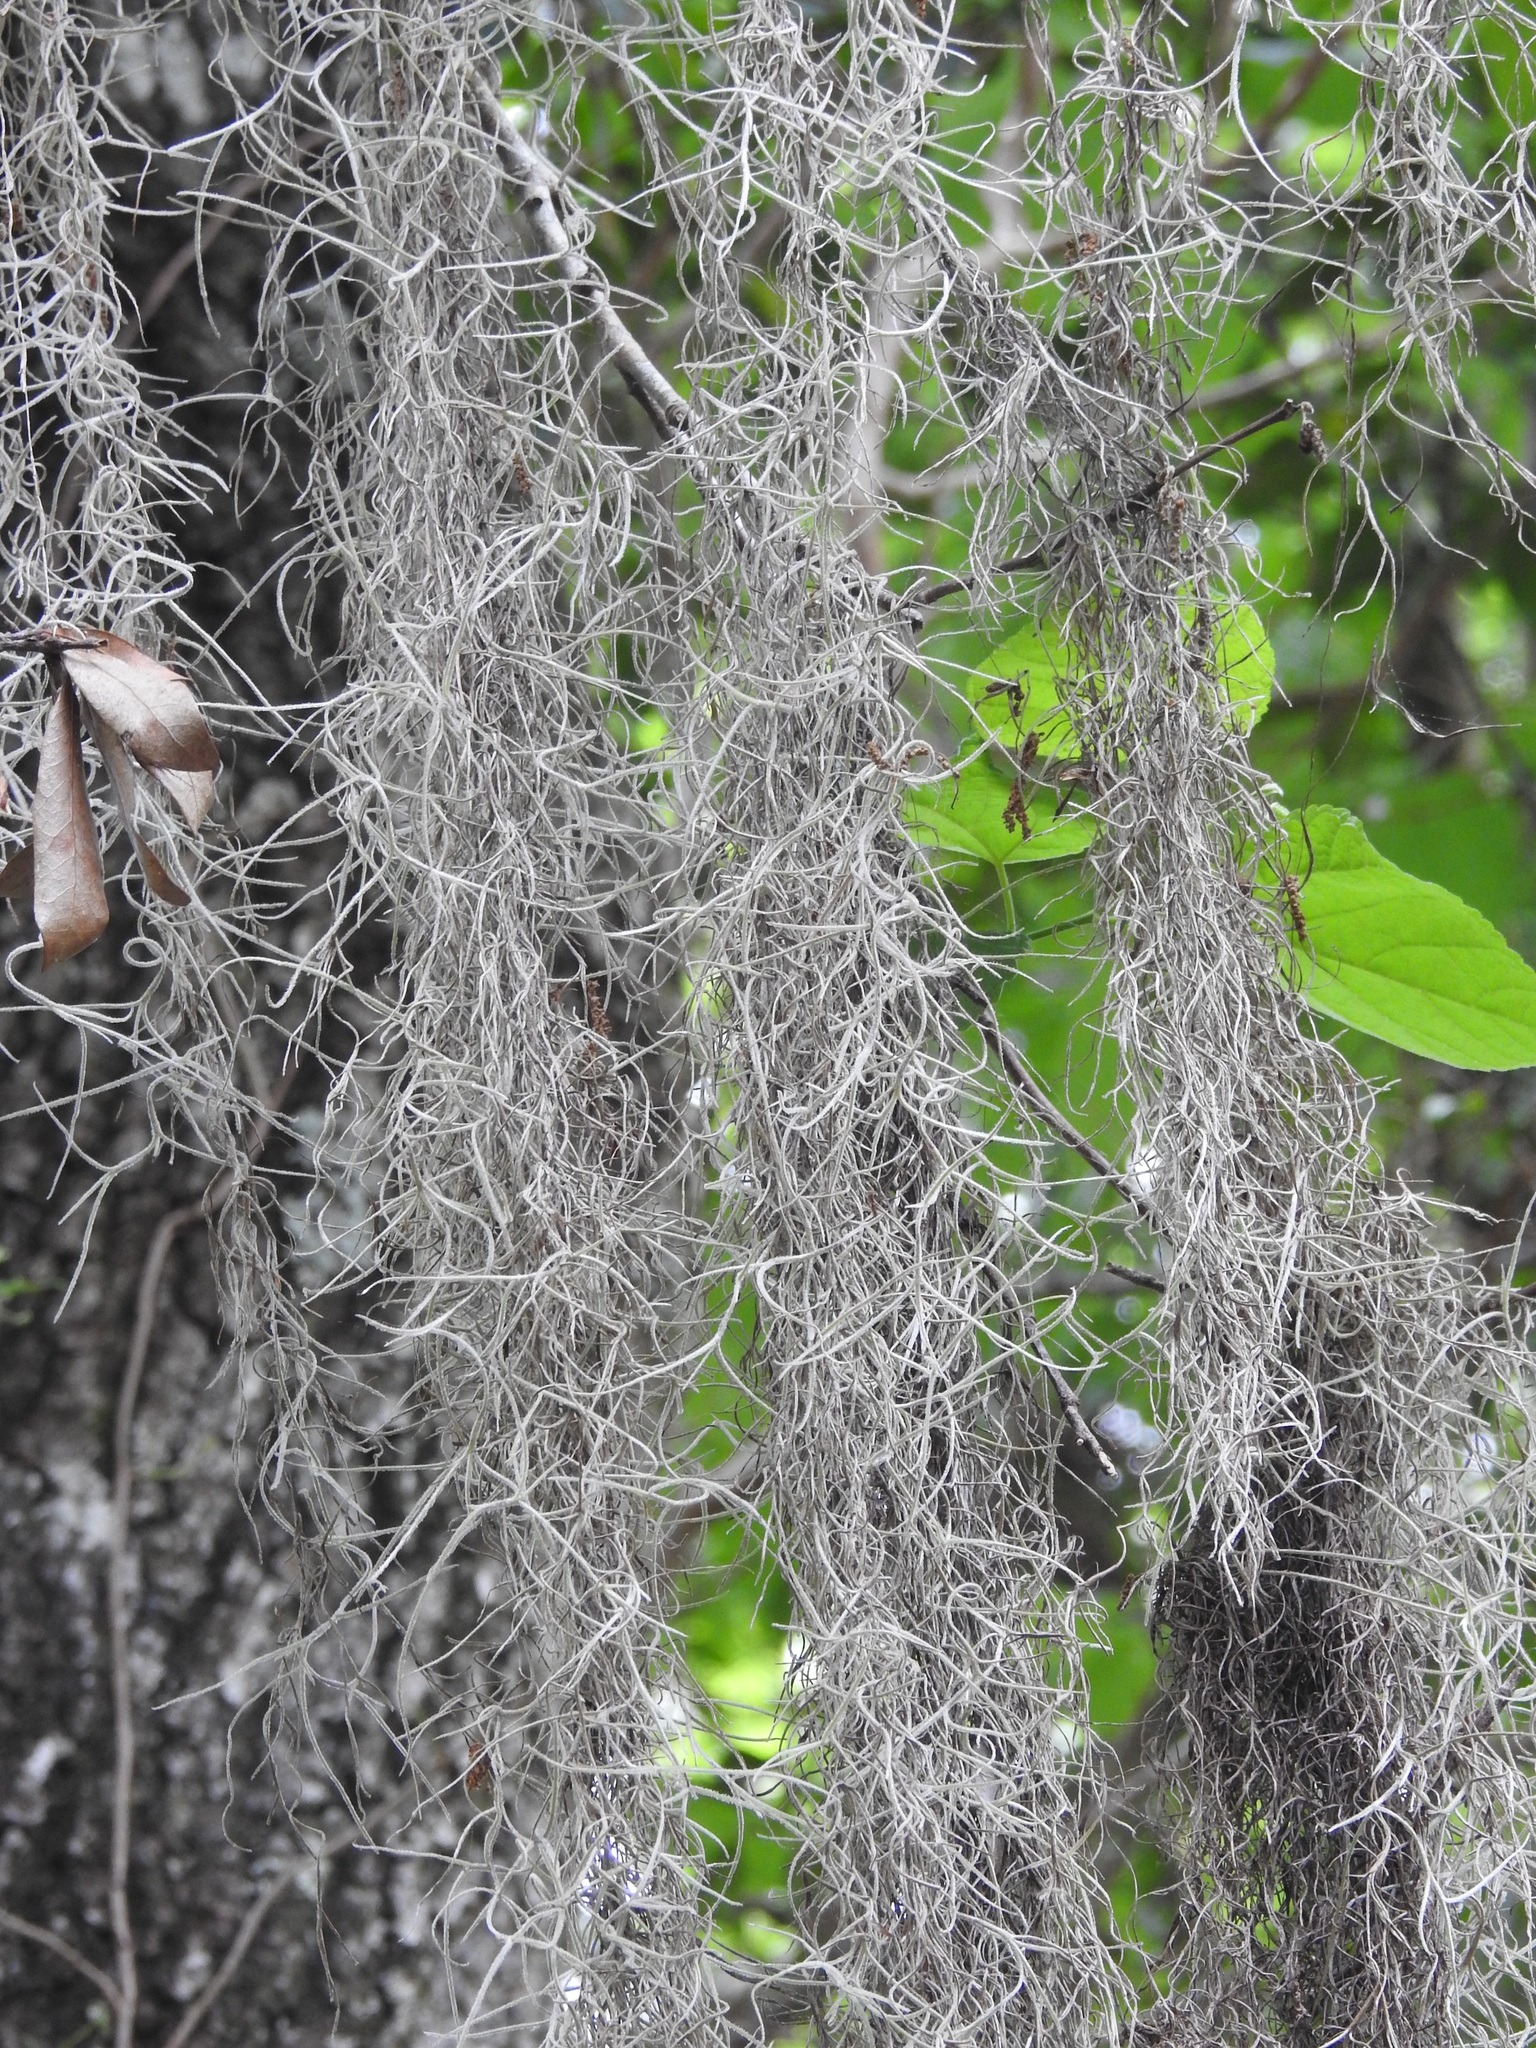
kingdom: Plantae
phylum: Tracheophyta
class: Liliopsida
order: Poales
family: Bromeliaceae
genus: Tillandsia
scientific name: Tillandsia usneoides
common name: Spanish moss
